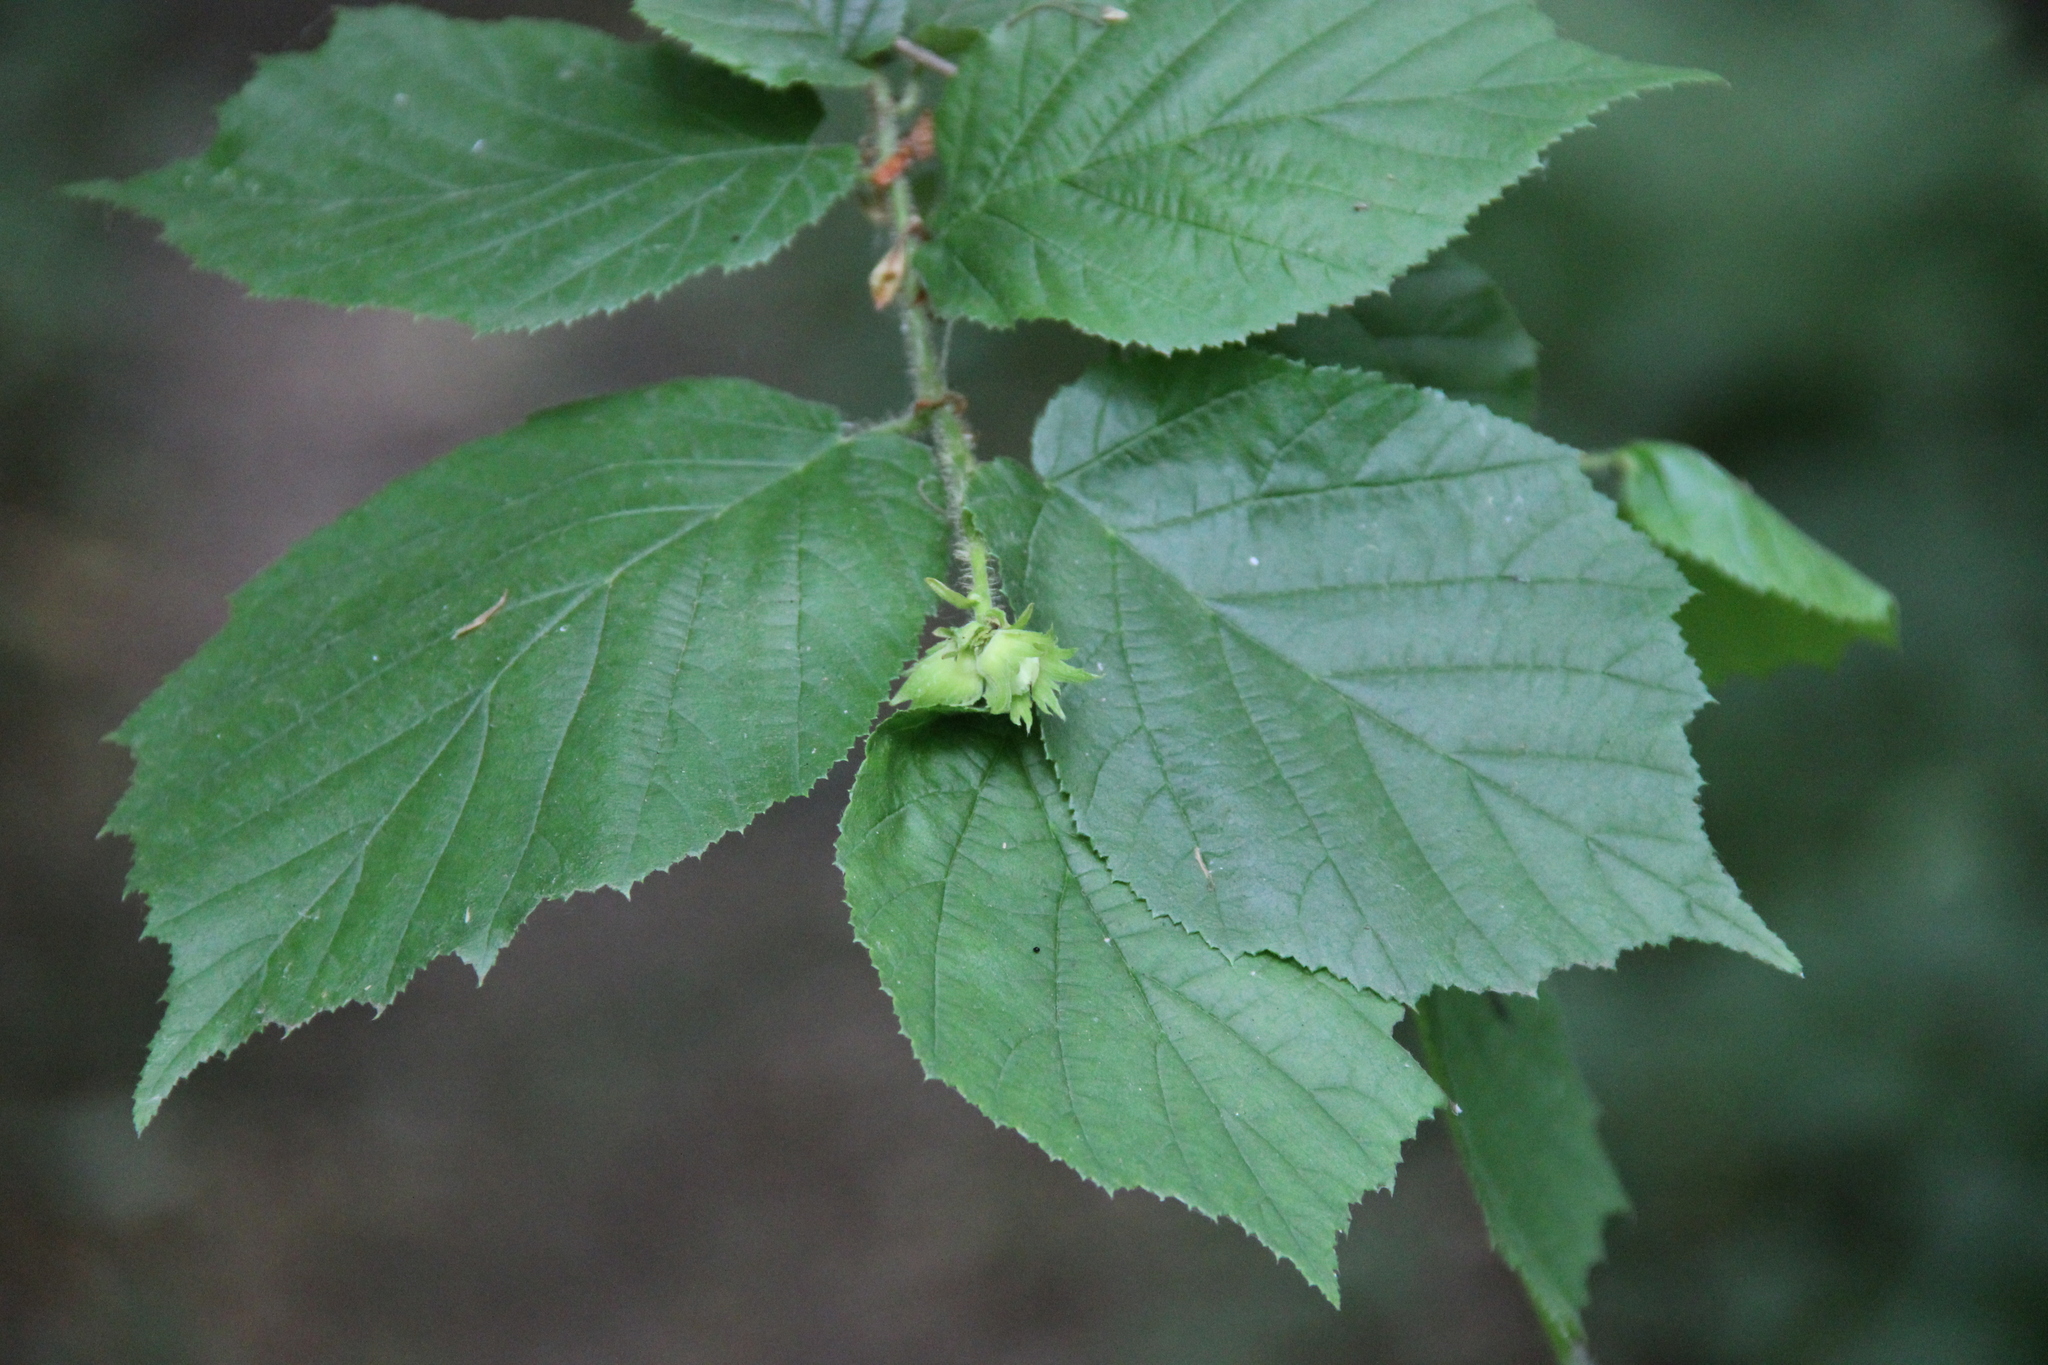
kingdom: Plantae
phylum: Tracheophyta
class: Magnoliopsida
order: Fagales
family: Betulaceae
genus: Corylus
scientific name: Corylus avellana
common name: European hazel
